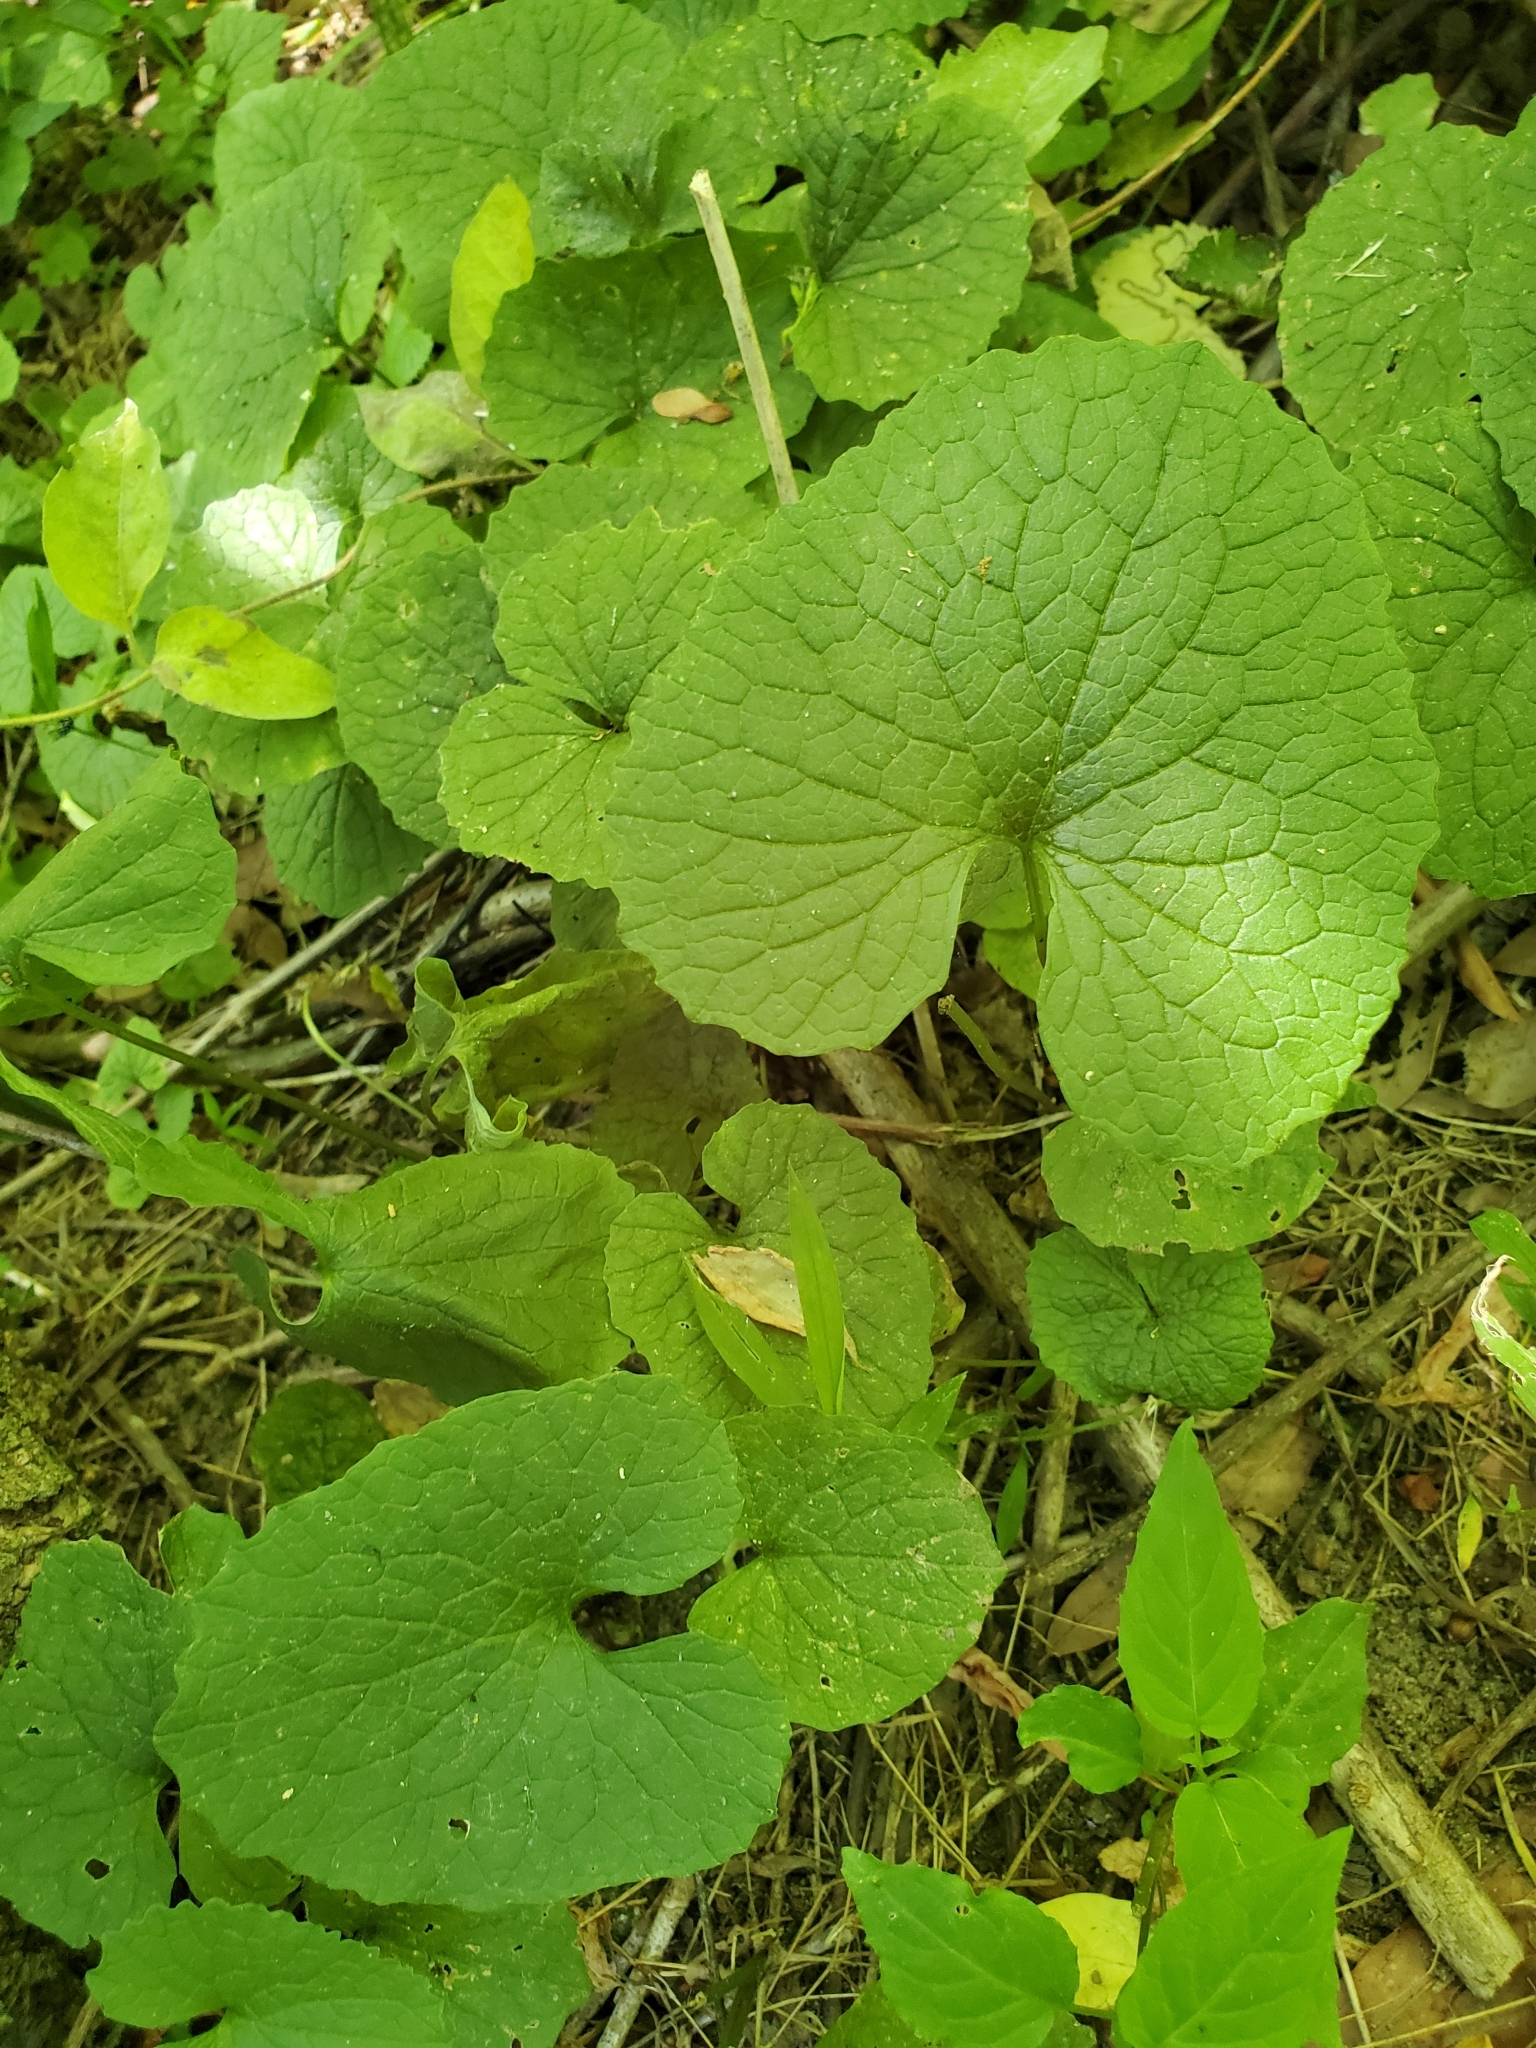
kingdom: Plantae
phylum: Tracheophyta
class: Magnoliopsida
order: Brassicales
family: Brassicaceae
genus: Alliaria
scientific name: Alliaria petiolata
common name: Garlic mustard
